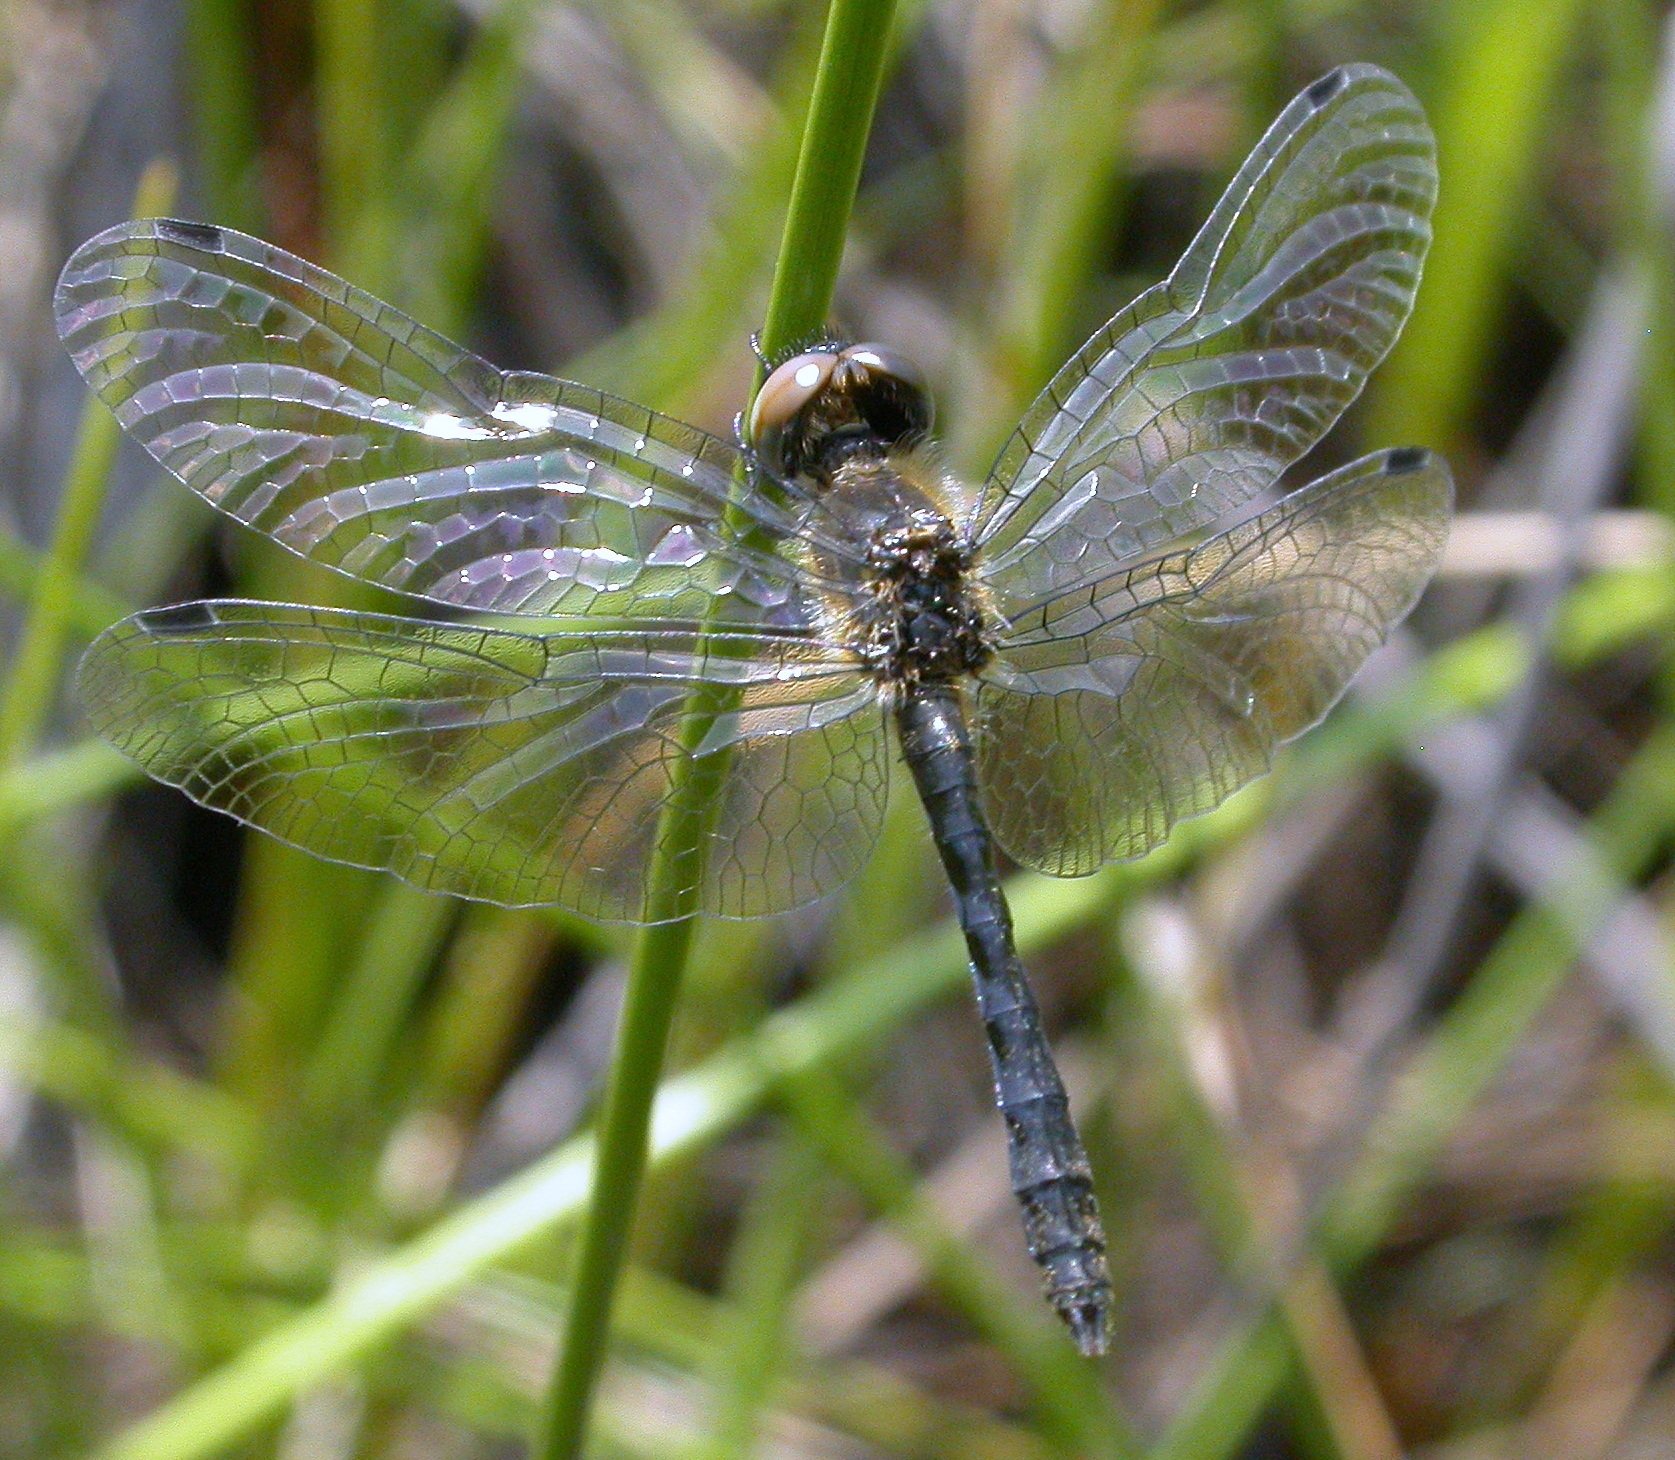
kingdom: Animalia
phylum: Arthropoda
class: Insecta
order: Odonata
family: Libellulidae
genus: Nannothemis
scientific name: Nannothemis bella
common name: Elfin skimmer
